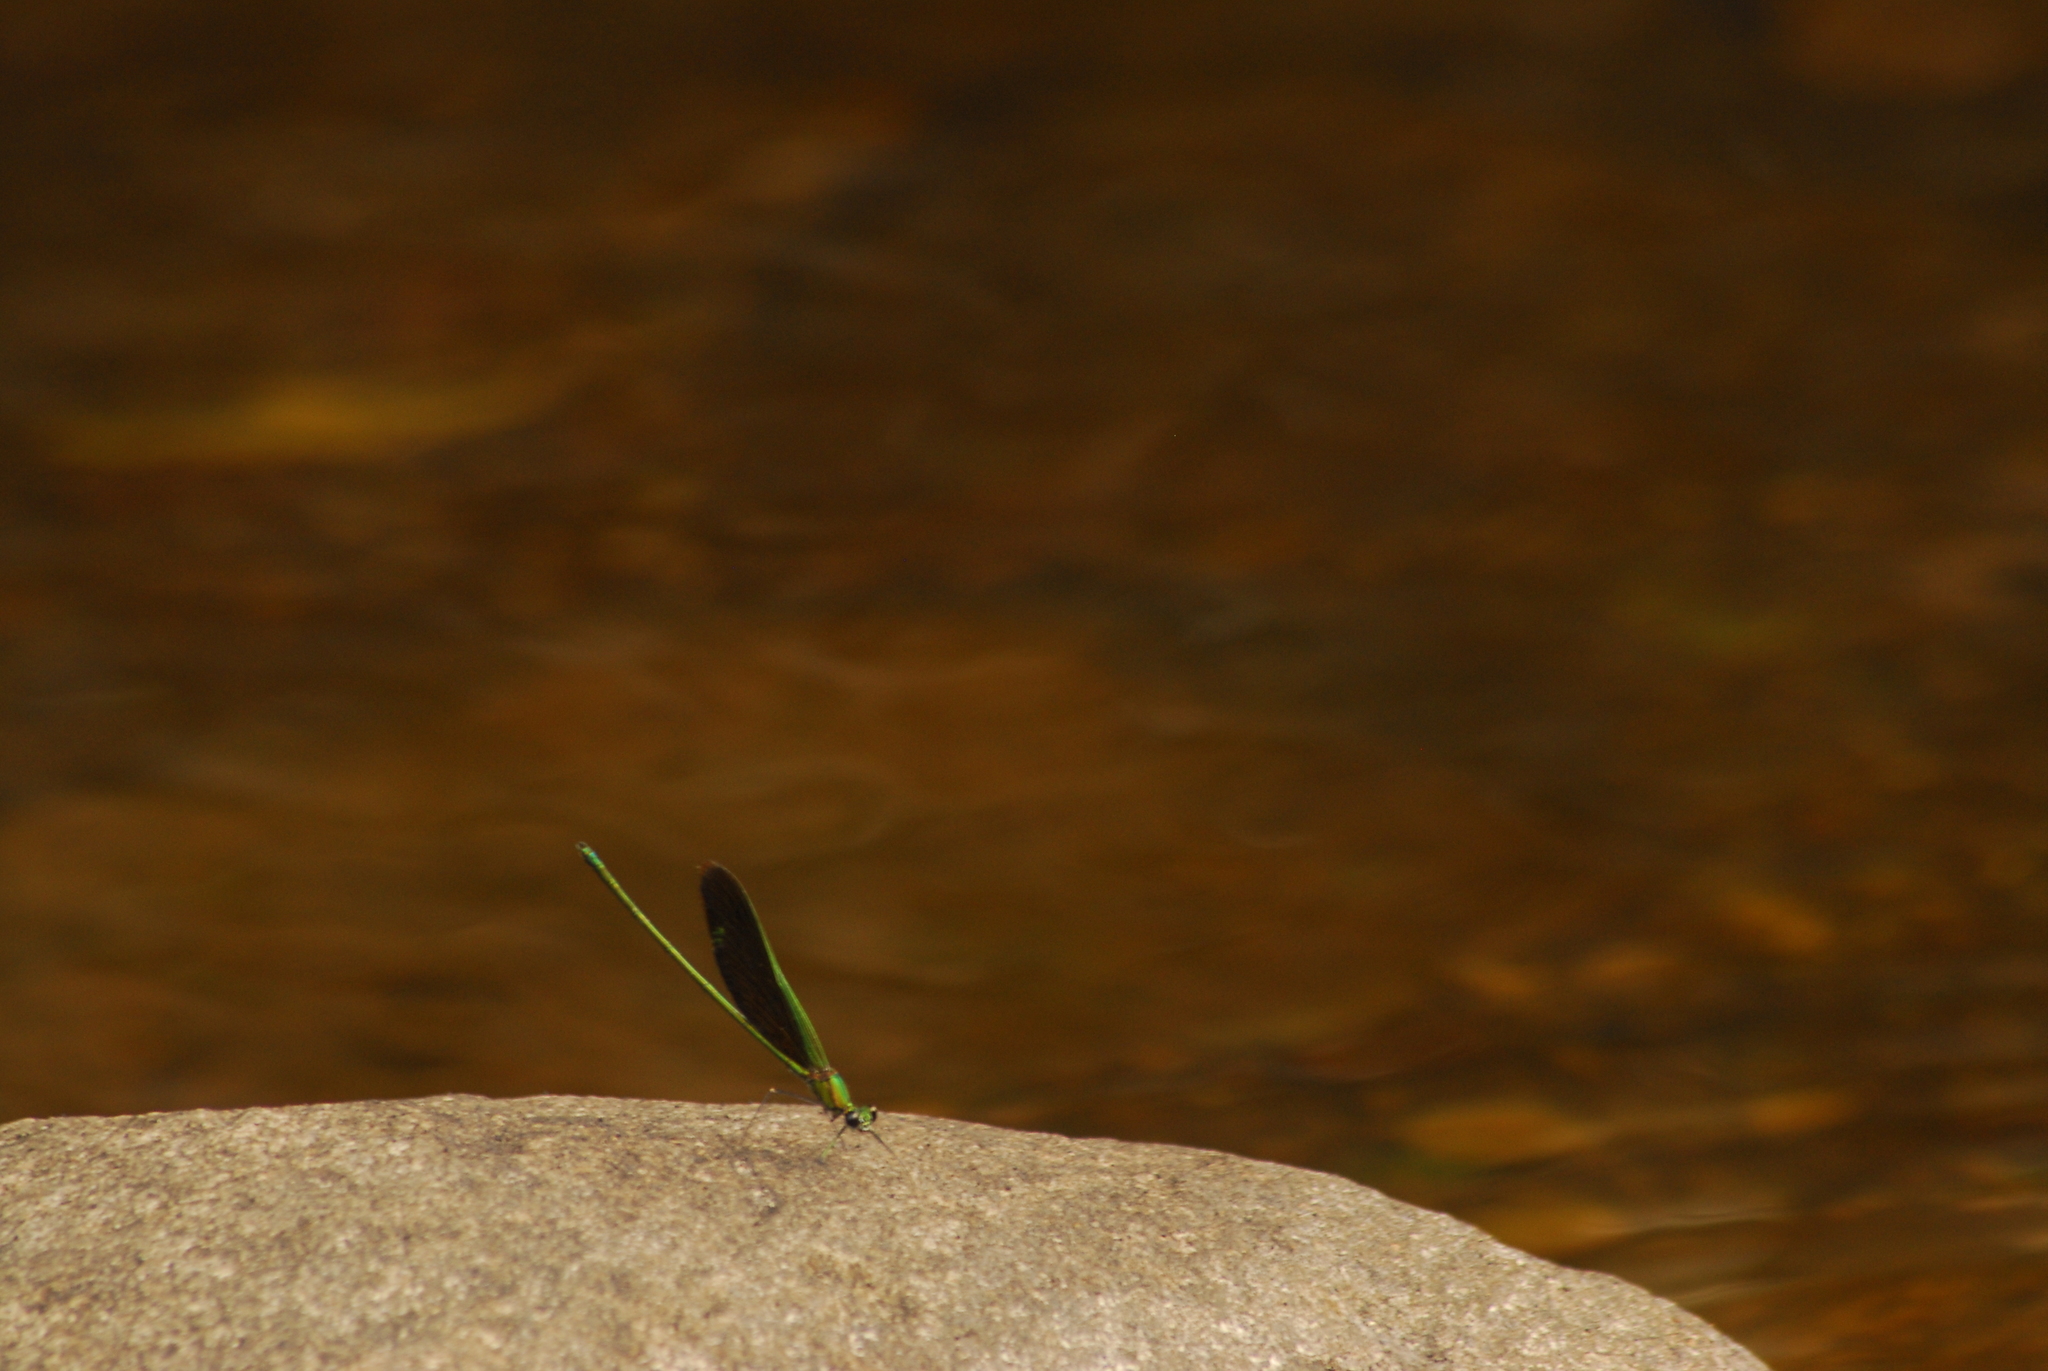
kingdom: Animalia
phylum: Arthropoda
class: Insecta
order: Odonata
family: Calopterygidae
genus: Neurobasis
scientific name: Neurobasis chinensis
